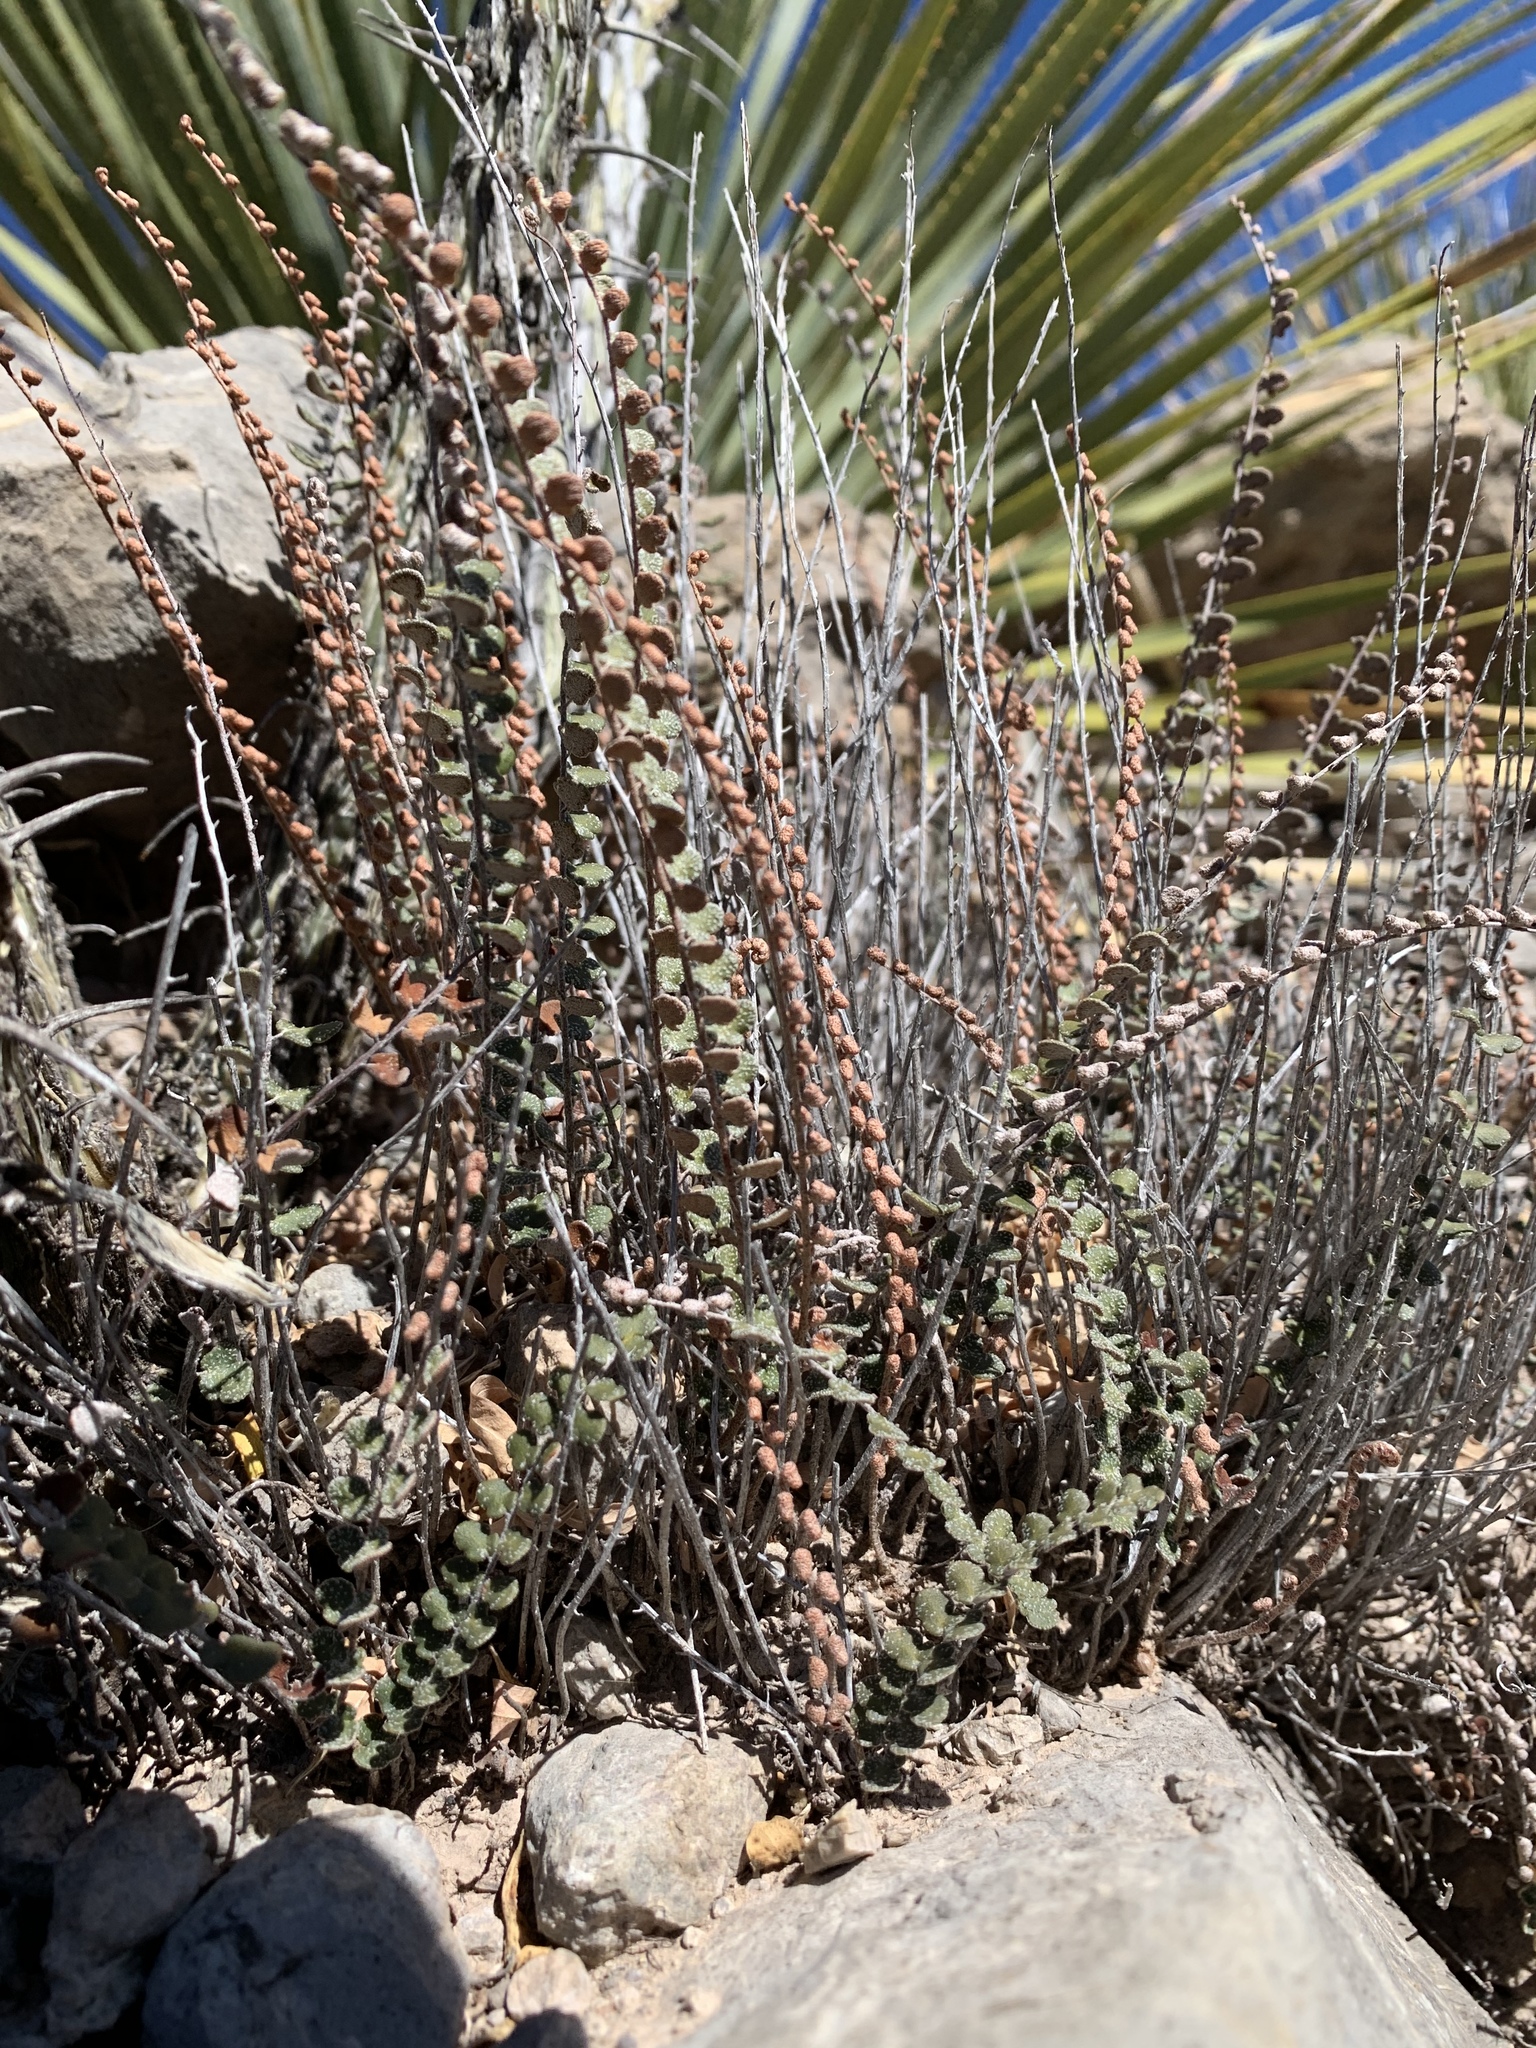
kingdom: Plantae
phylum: Tracheophyta
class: Polypodiopsida
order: Polypodiales
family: Pteridaceae
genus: Astrolepis
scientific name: Astrolepis cochisensis
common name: Scaly cloak fern
